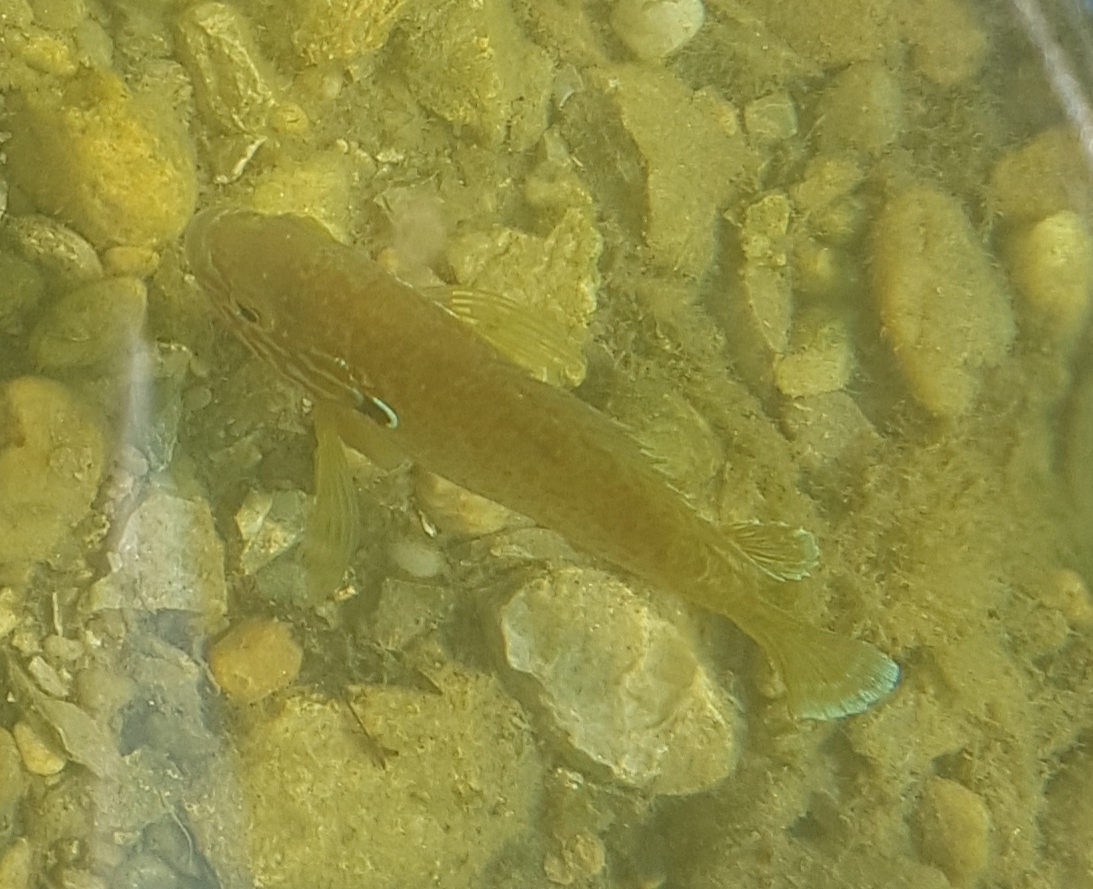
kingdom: Animalia
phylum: Chordata
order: Perciformes
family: Centrarchidae
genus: Lepomis
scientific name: Lepomis gibbosus
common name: Pumpkinseed
